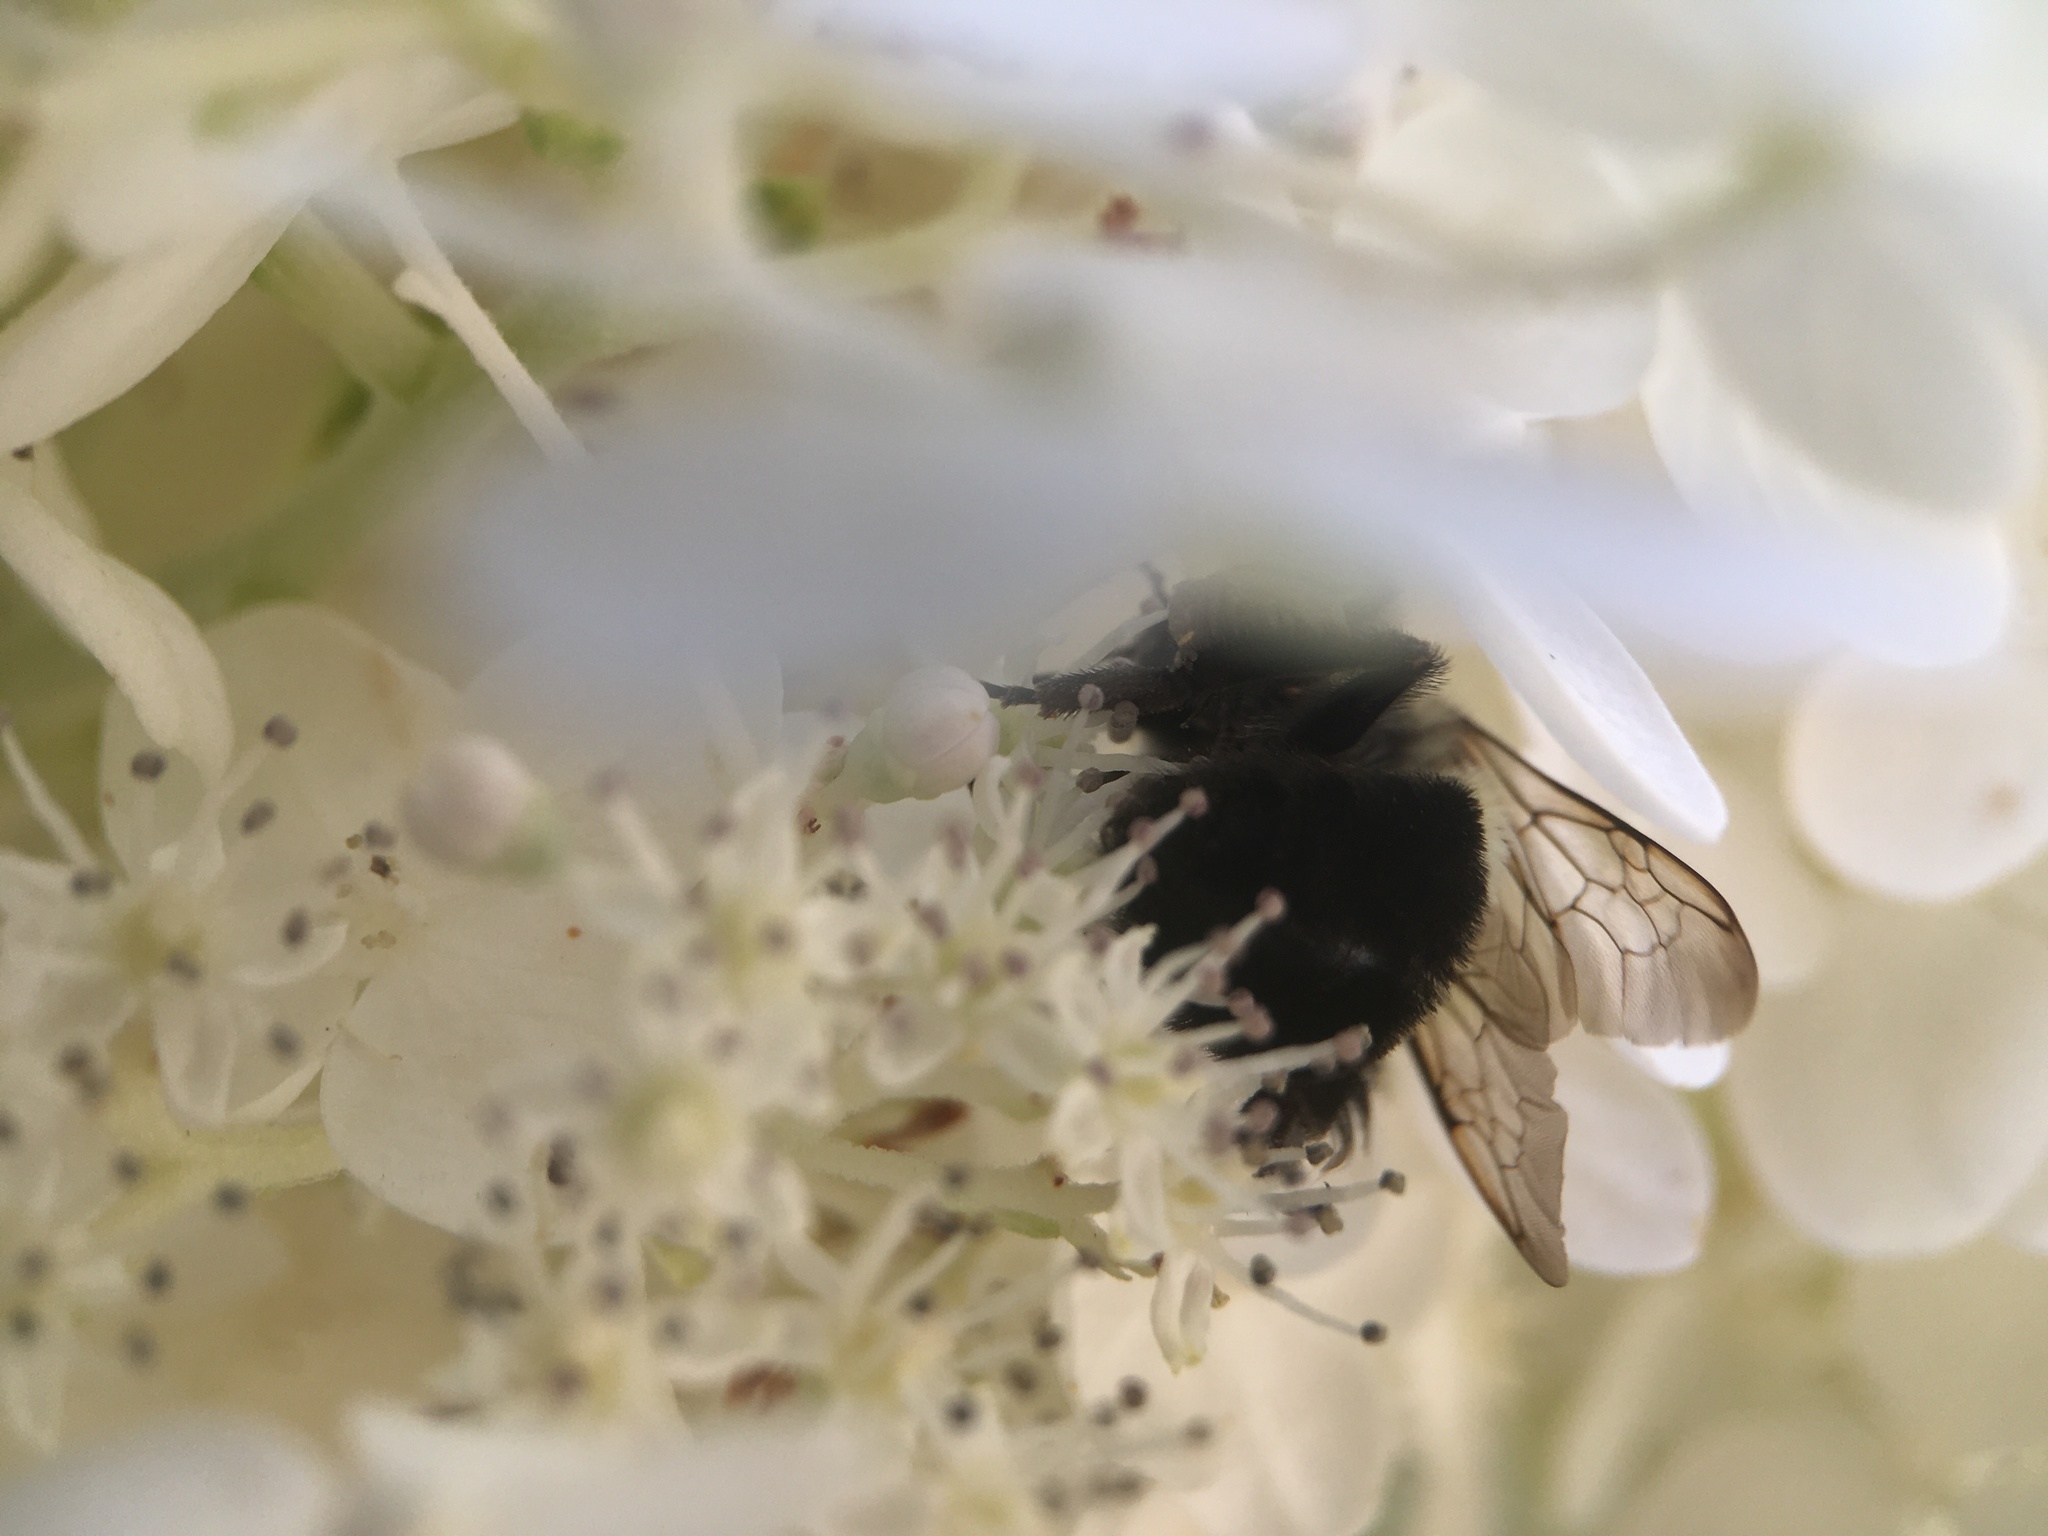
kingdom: Animalia
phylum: Arthropoda
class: Insecta
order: Hymenoptera
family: Apidae
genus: Bombus
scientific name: Bombus impatiens
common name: Common eastern bumble bee
